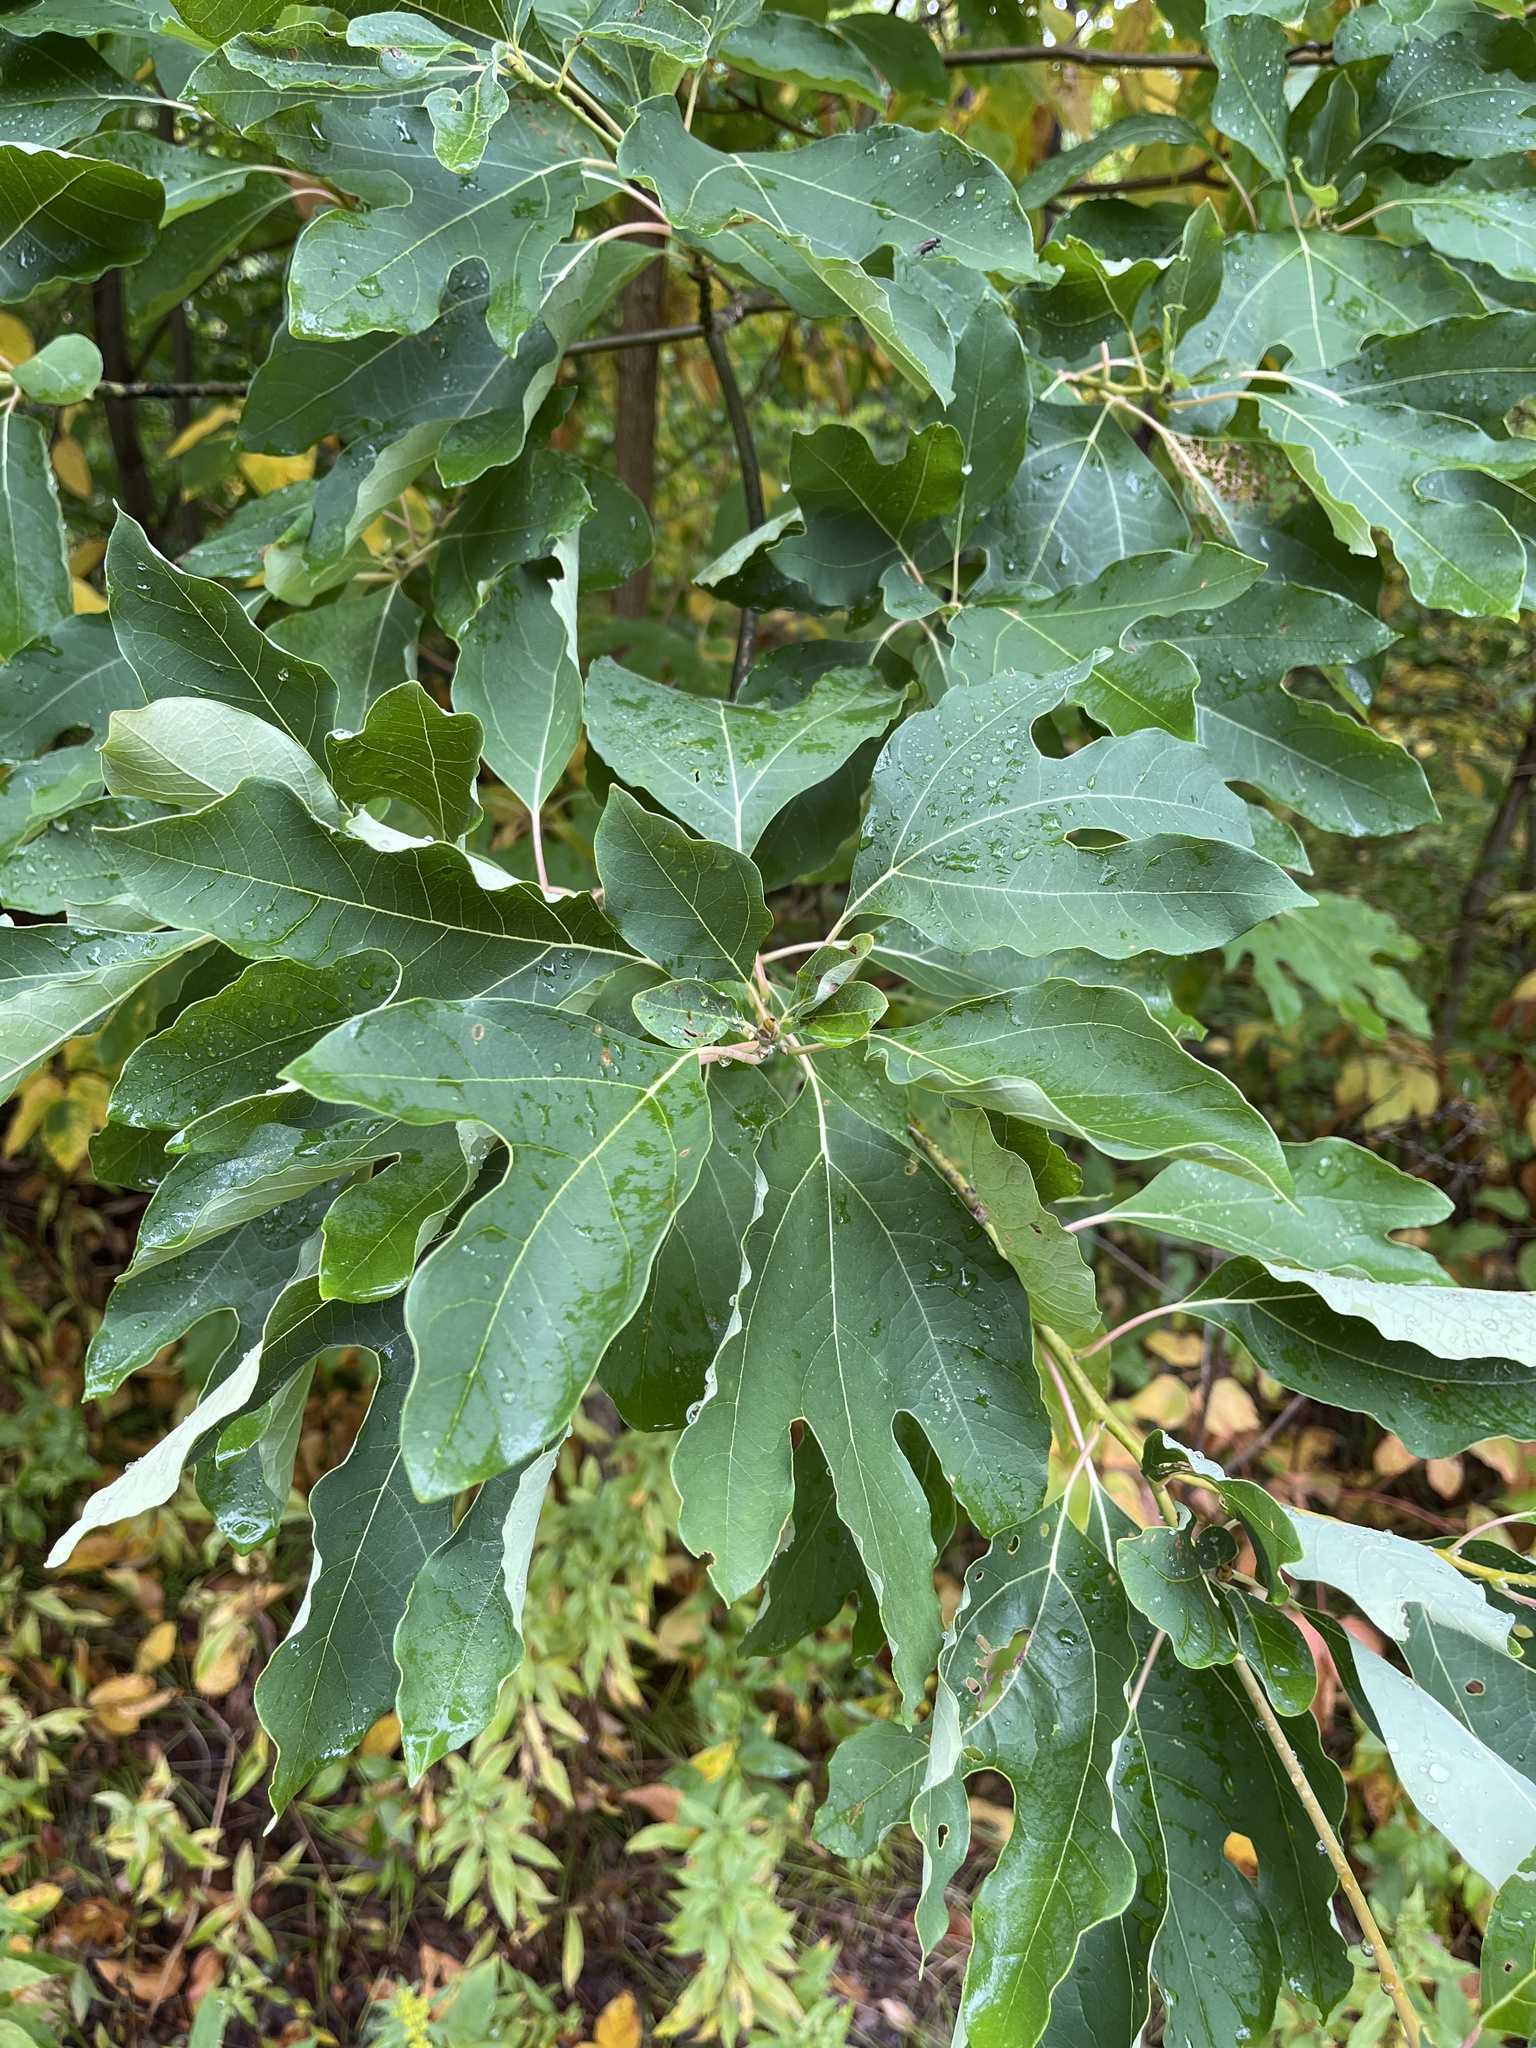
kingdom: Plantae
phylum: Tracheophyta
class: Magnoliopsida
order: Laurales
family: Lauraceae
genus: Sassafras
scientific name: Sassafras albidum
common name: Sassafras
